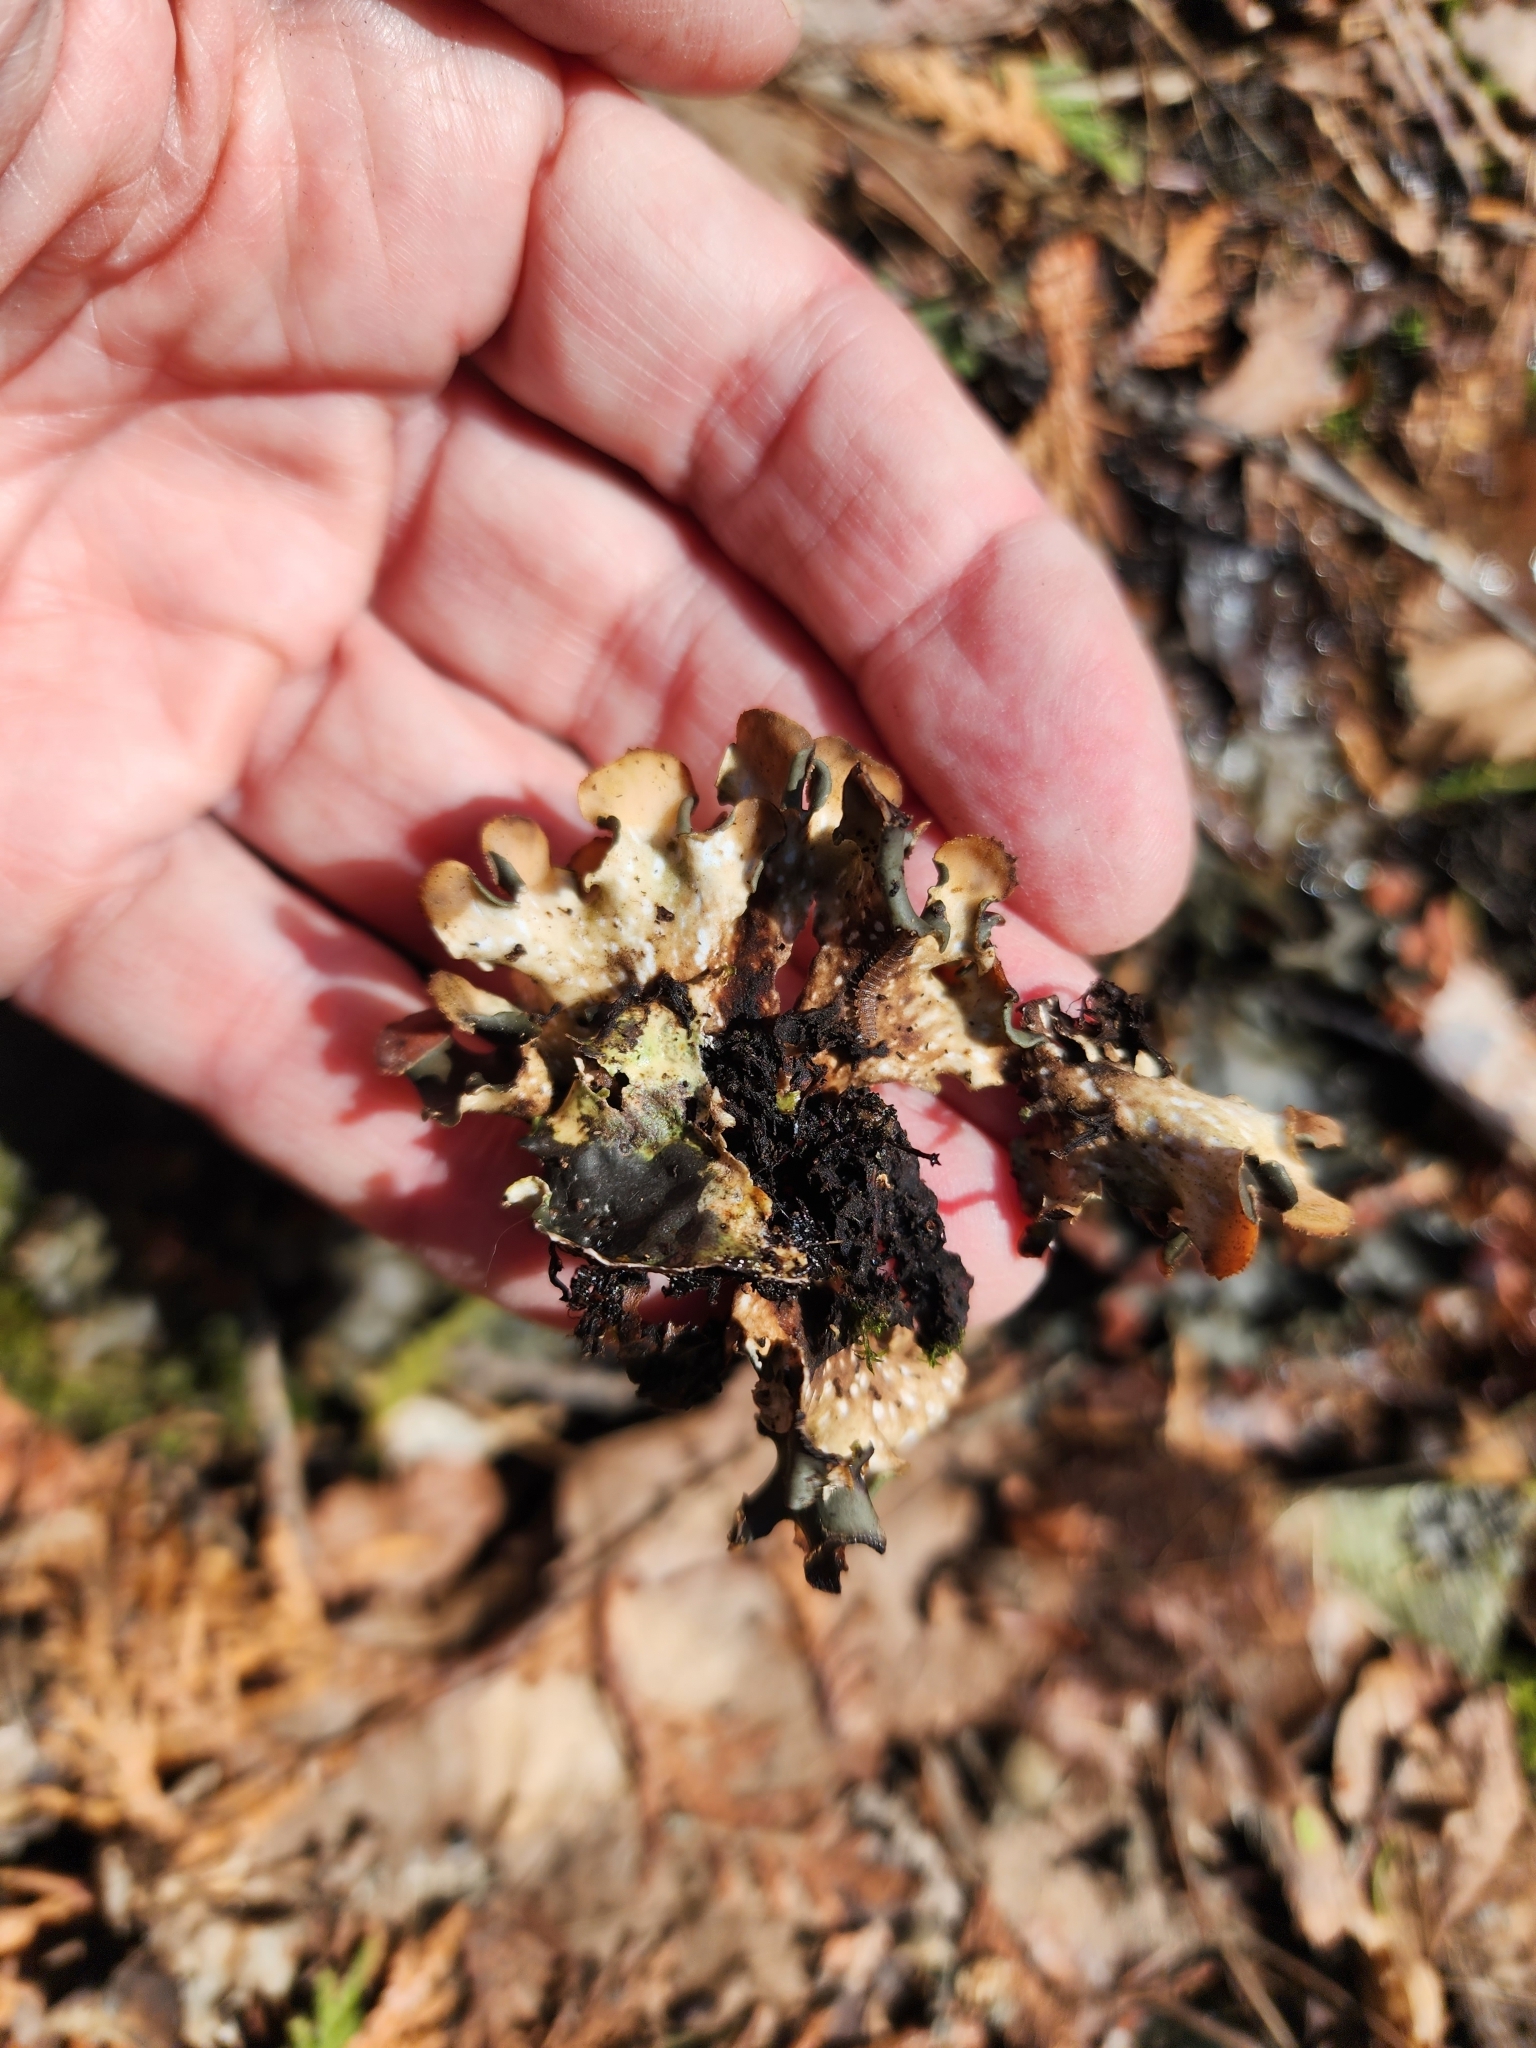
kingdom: Fungi
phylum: Ascomycota
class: Lecanoromycetes
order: Peltigerales
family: Peltigeraceae
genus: Peltigera
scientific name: Peltigera polydactylon
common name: Many-fruited pelt lichen
